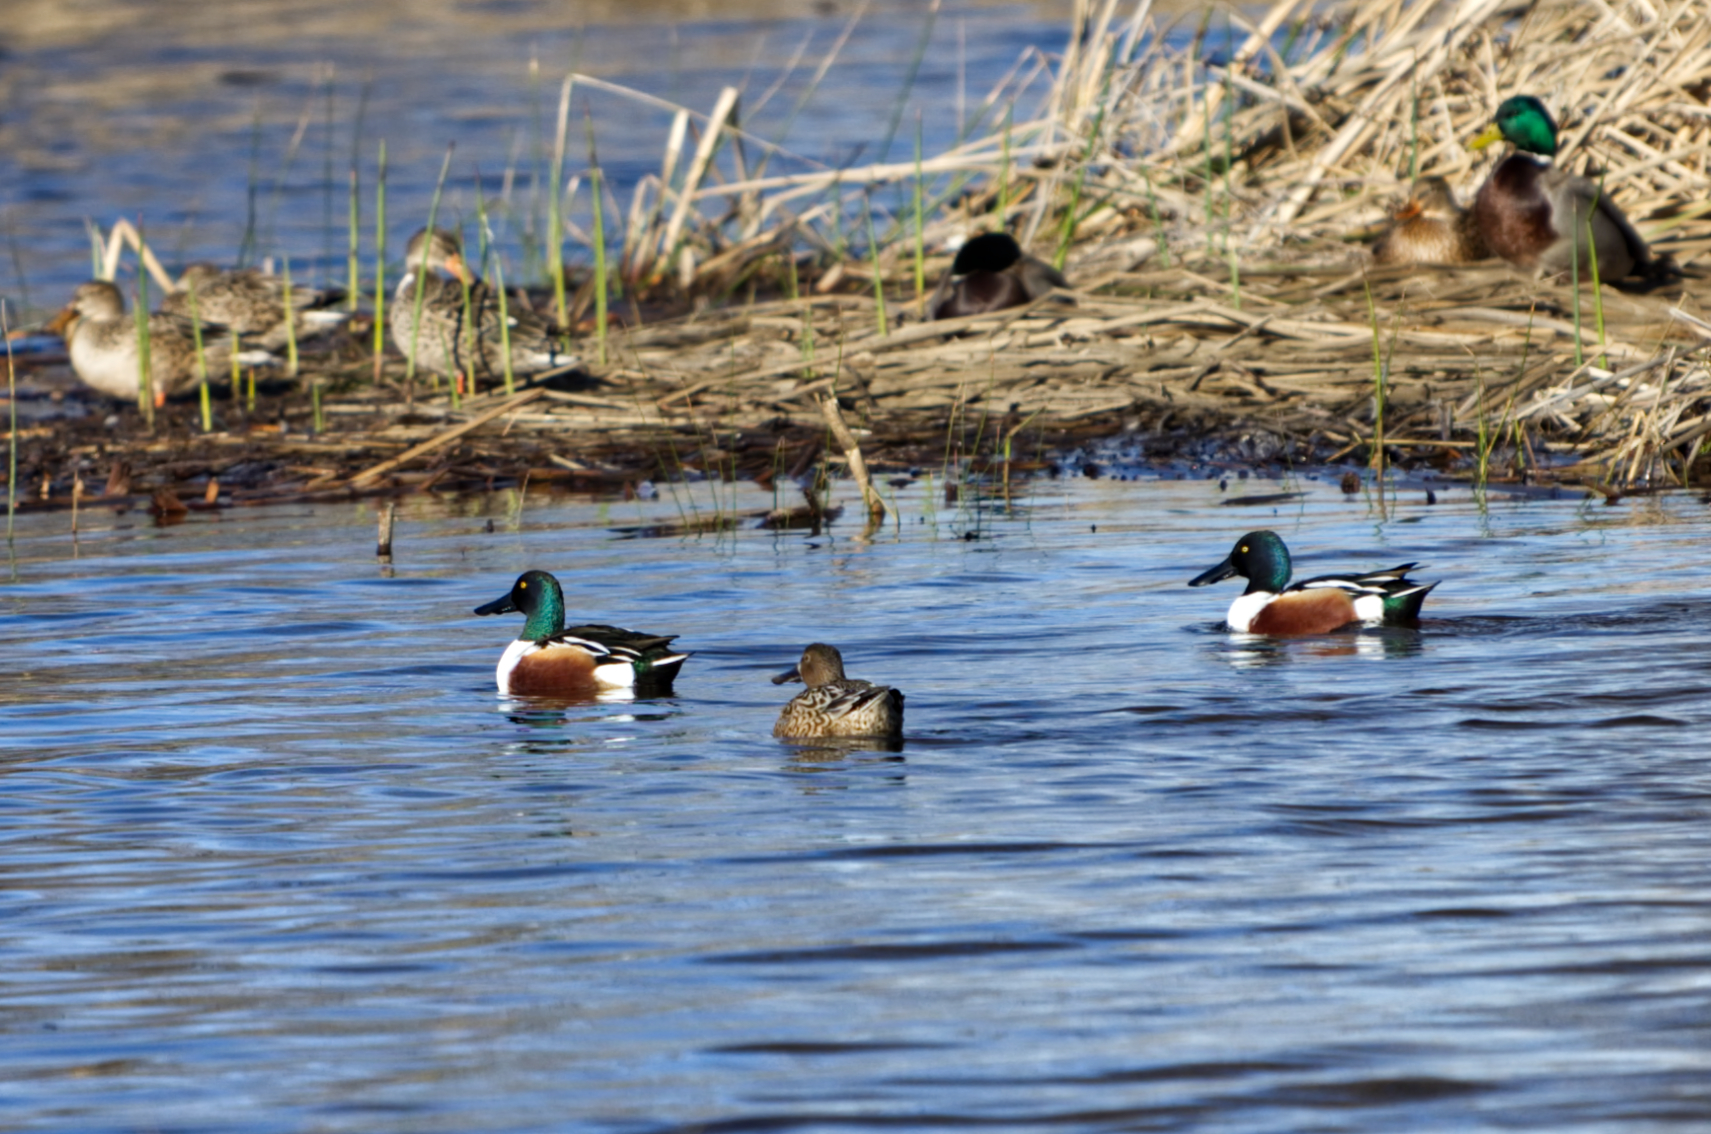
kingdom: Animalia
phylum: Chordata
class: Aves
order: Anseriformes
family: Anatidae
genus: Spatula
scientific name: Spatula clypeata
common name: Northern shoveler
